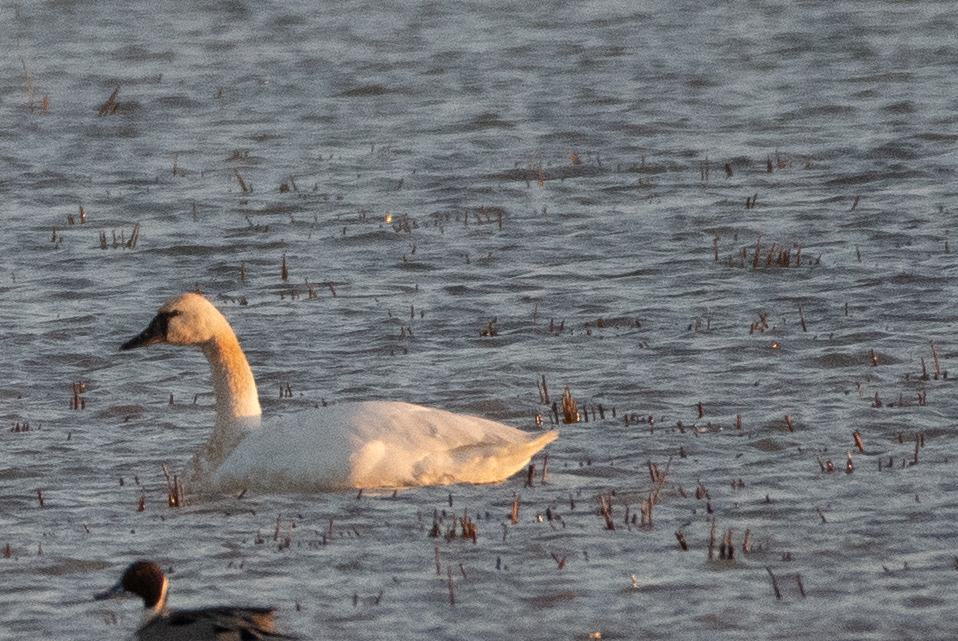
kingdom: Animalia
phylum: Chordata
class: Aves
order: Anseriformes
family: Anatidae
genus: Cygnus
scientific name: Cygnus columbianus
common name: Tundra swan
